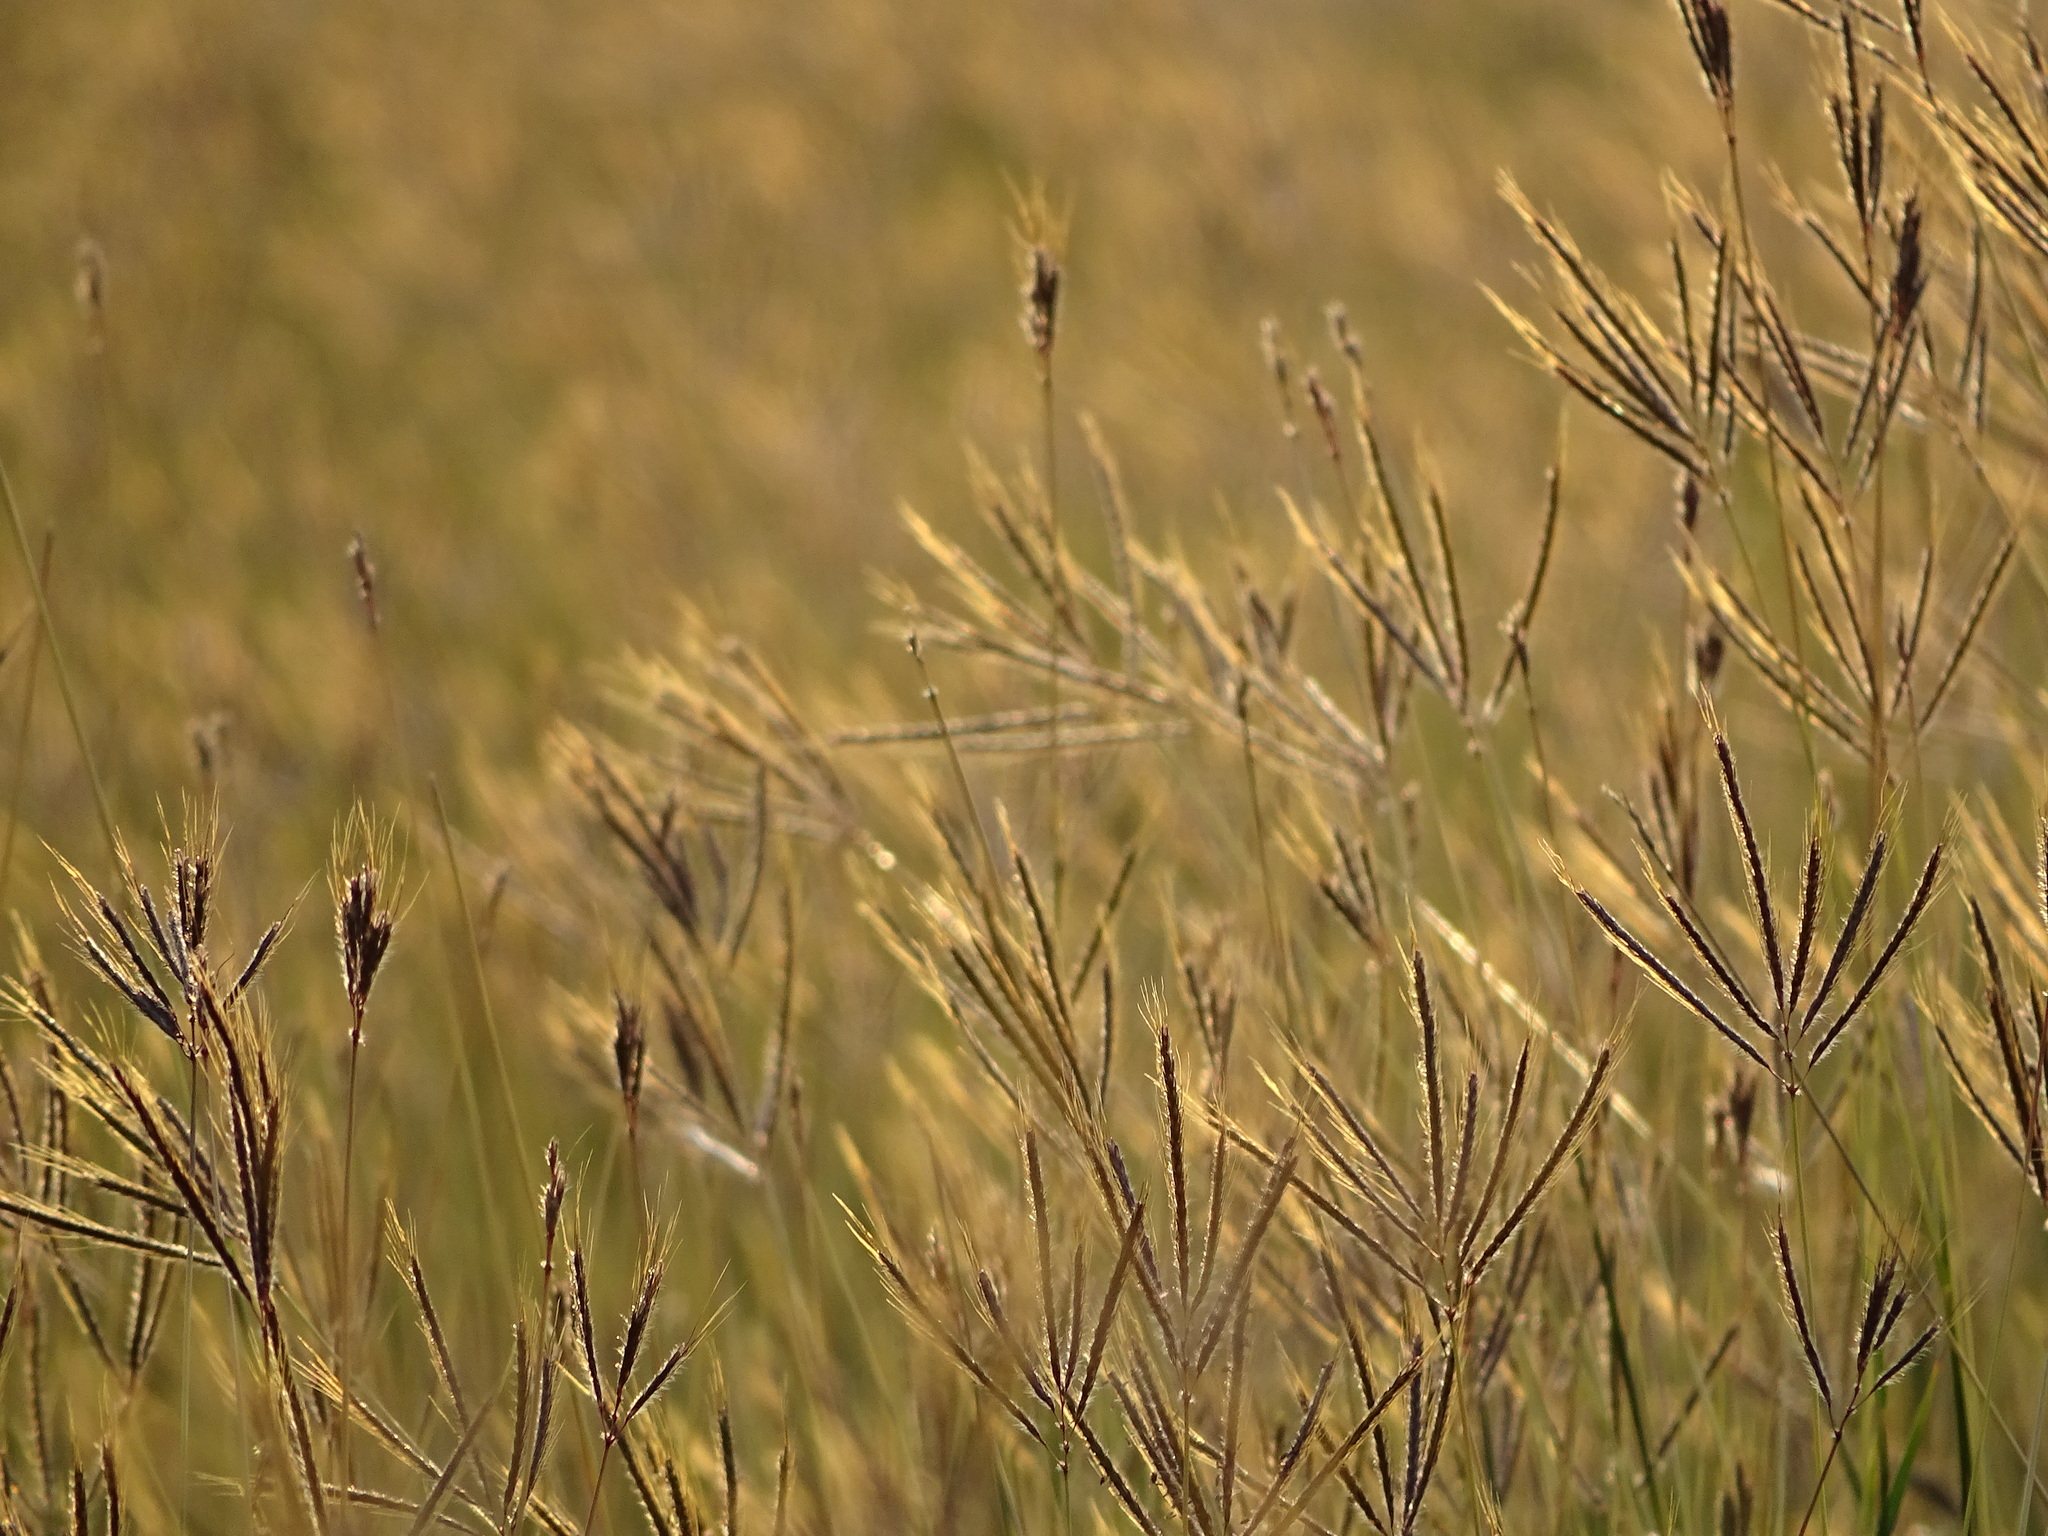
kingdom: Plantae
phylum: Tracheophyta
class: Liliopsida
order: Poales
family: Poaceae
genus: Dichanthium
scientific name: Dichanthium annulatum
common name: Kleberg's bluestem
